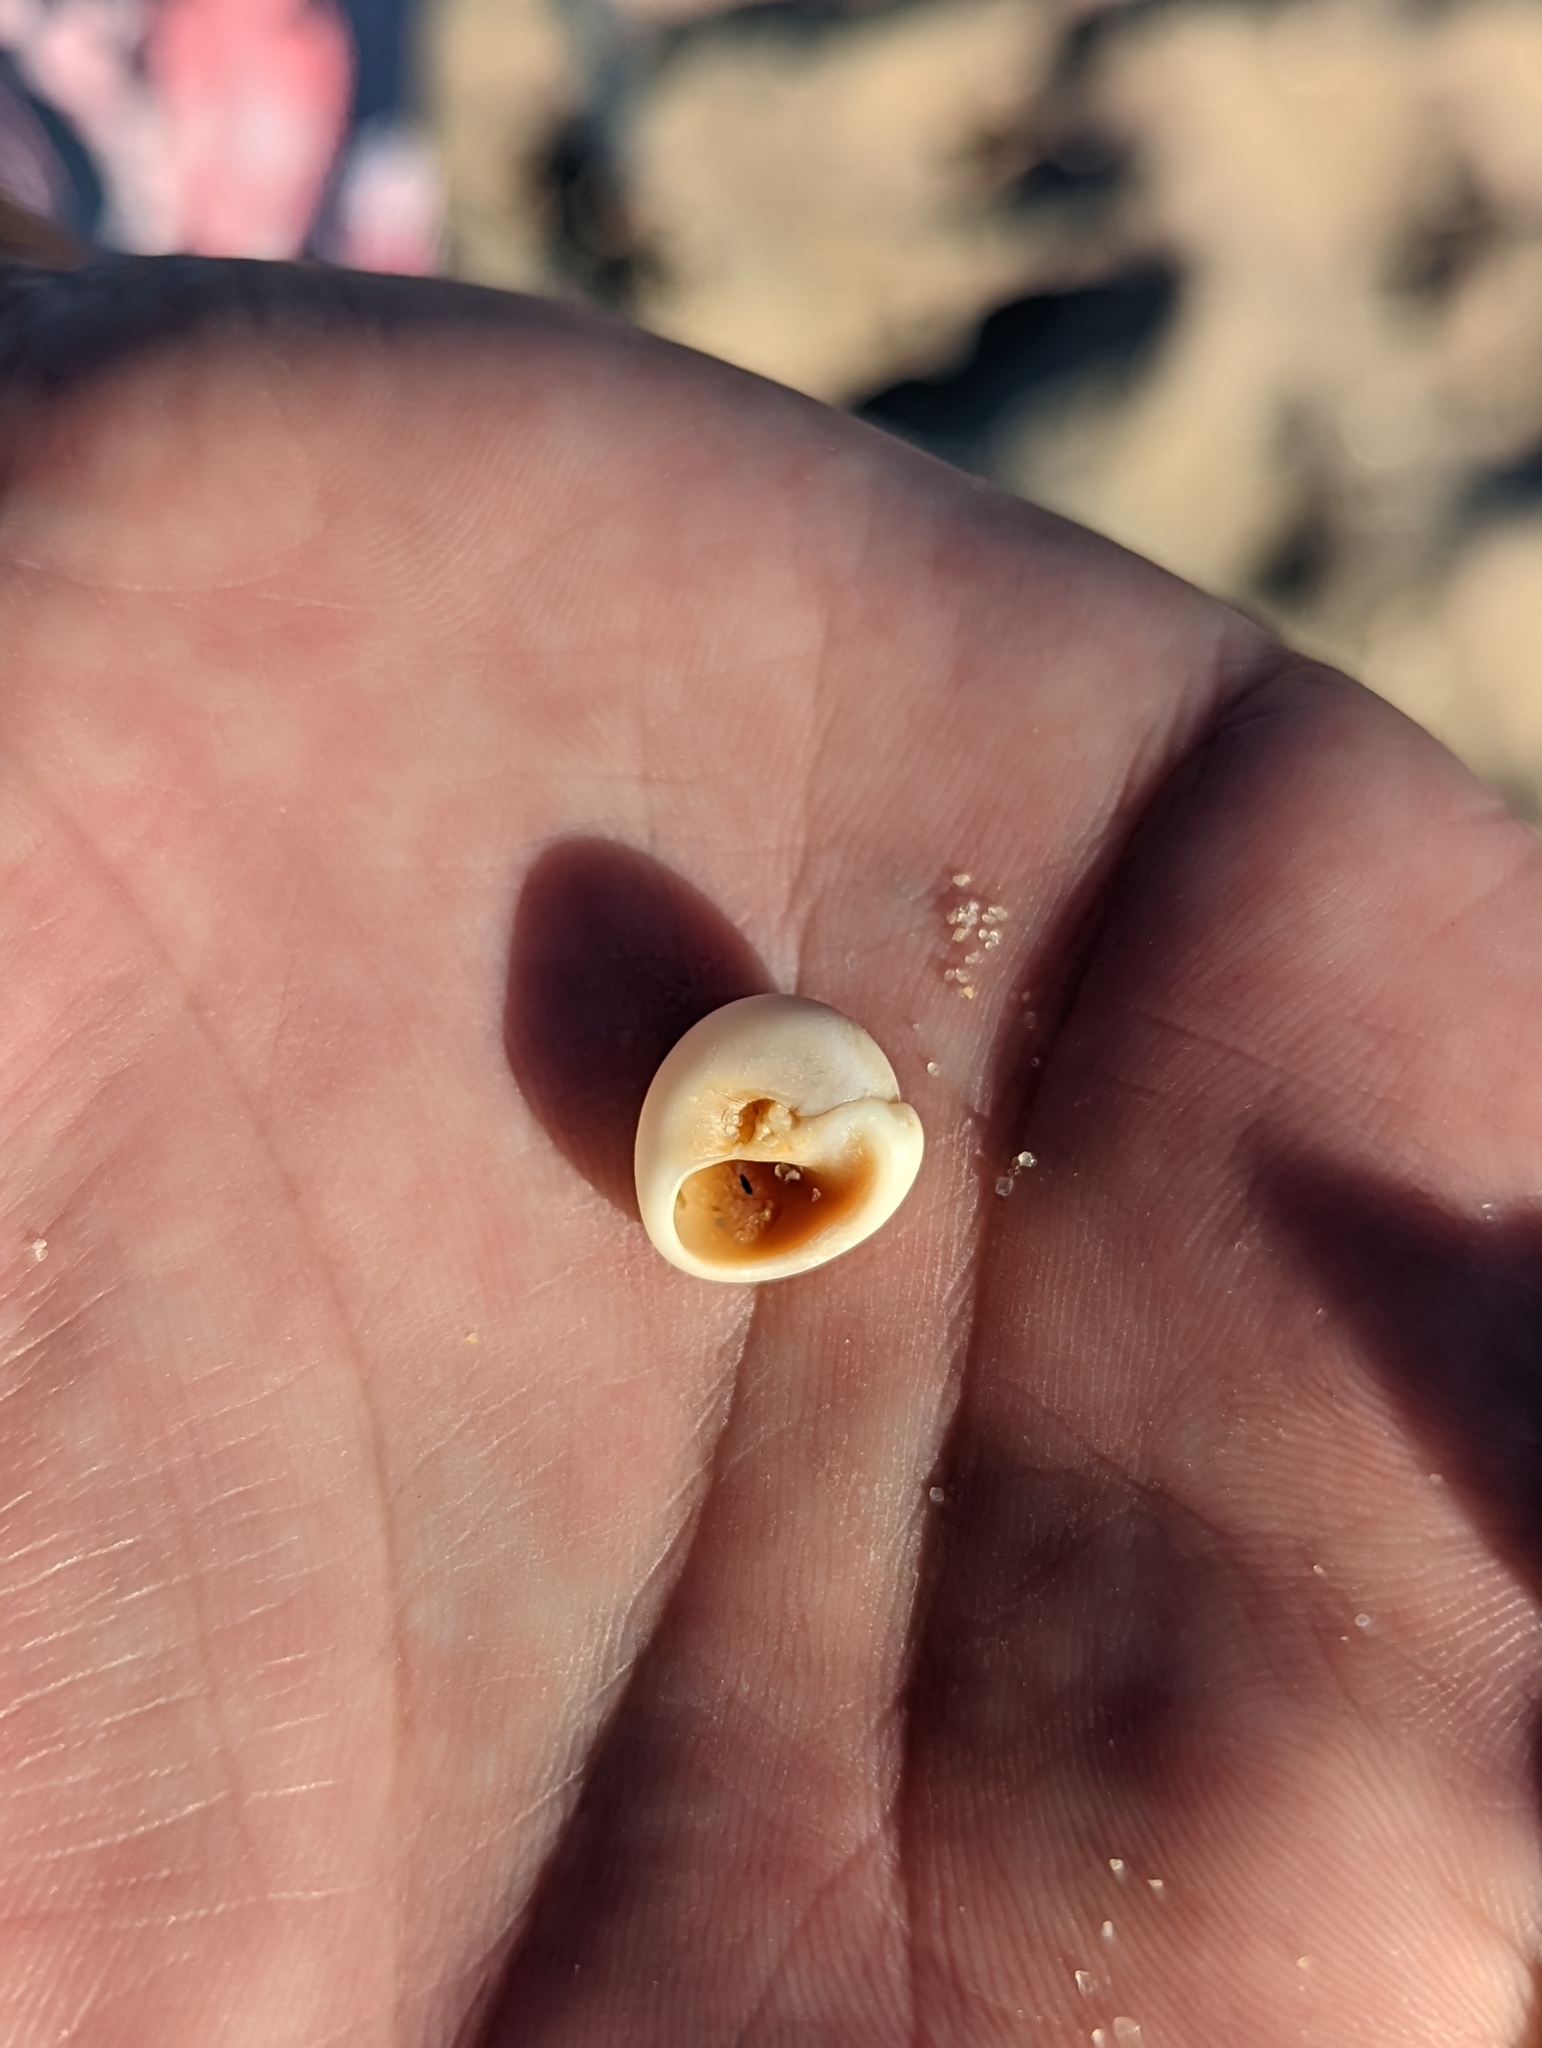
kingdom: Animalia
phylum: Mollusca
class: Gastropoda
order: Littorinimorpha
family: Naticidae
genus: Neverita
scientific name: Neverita didyma
